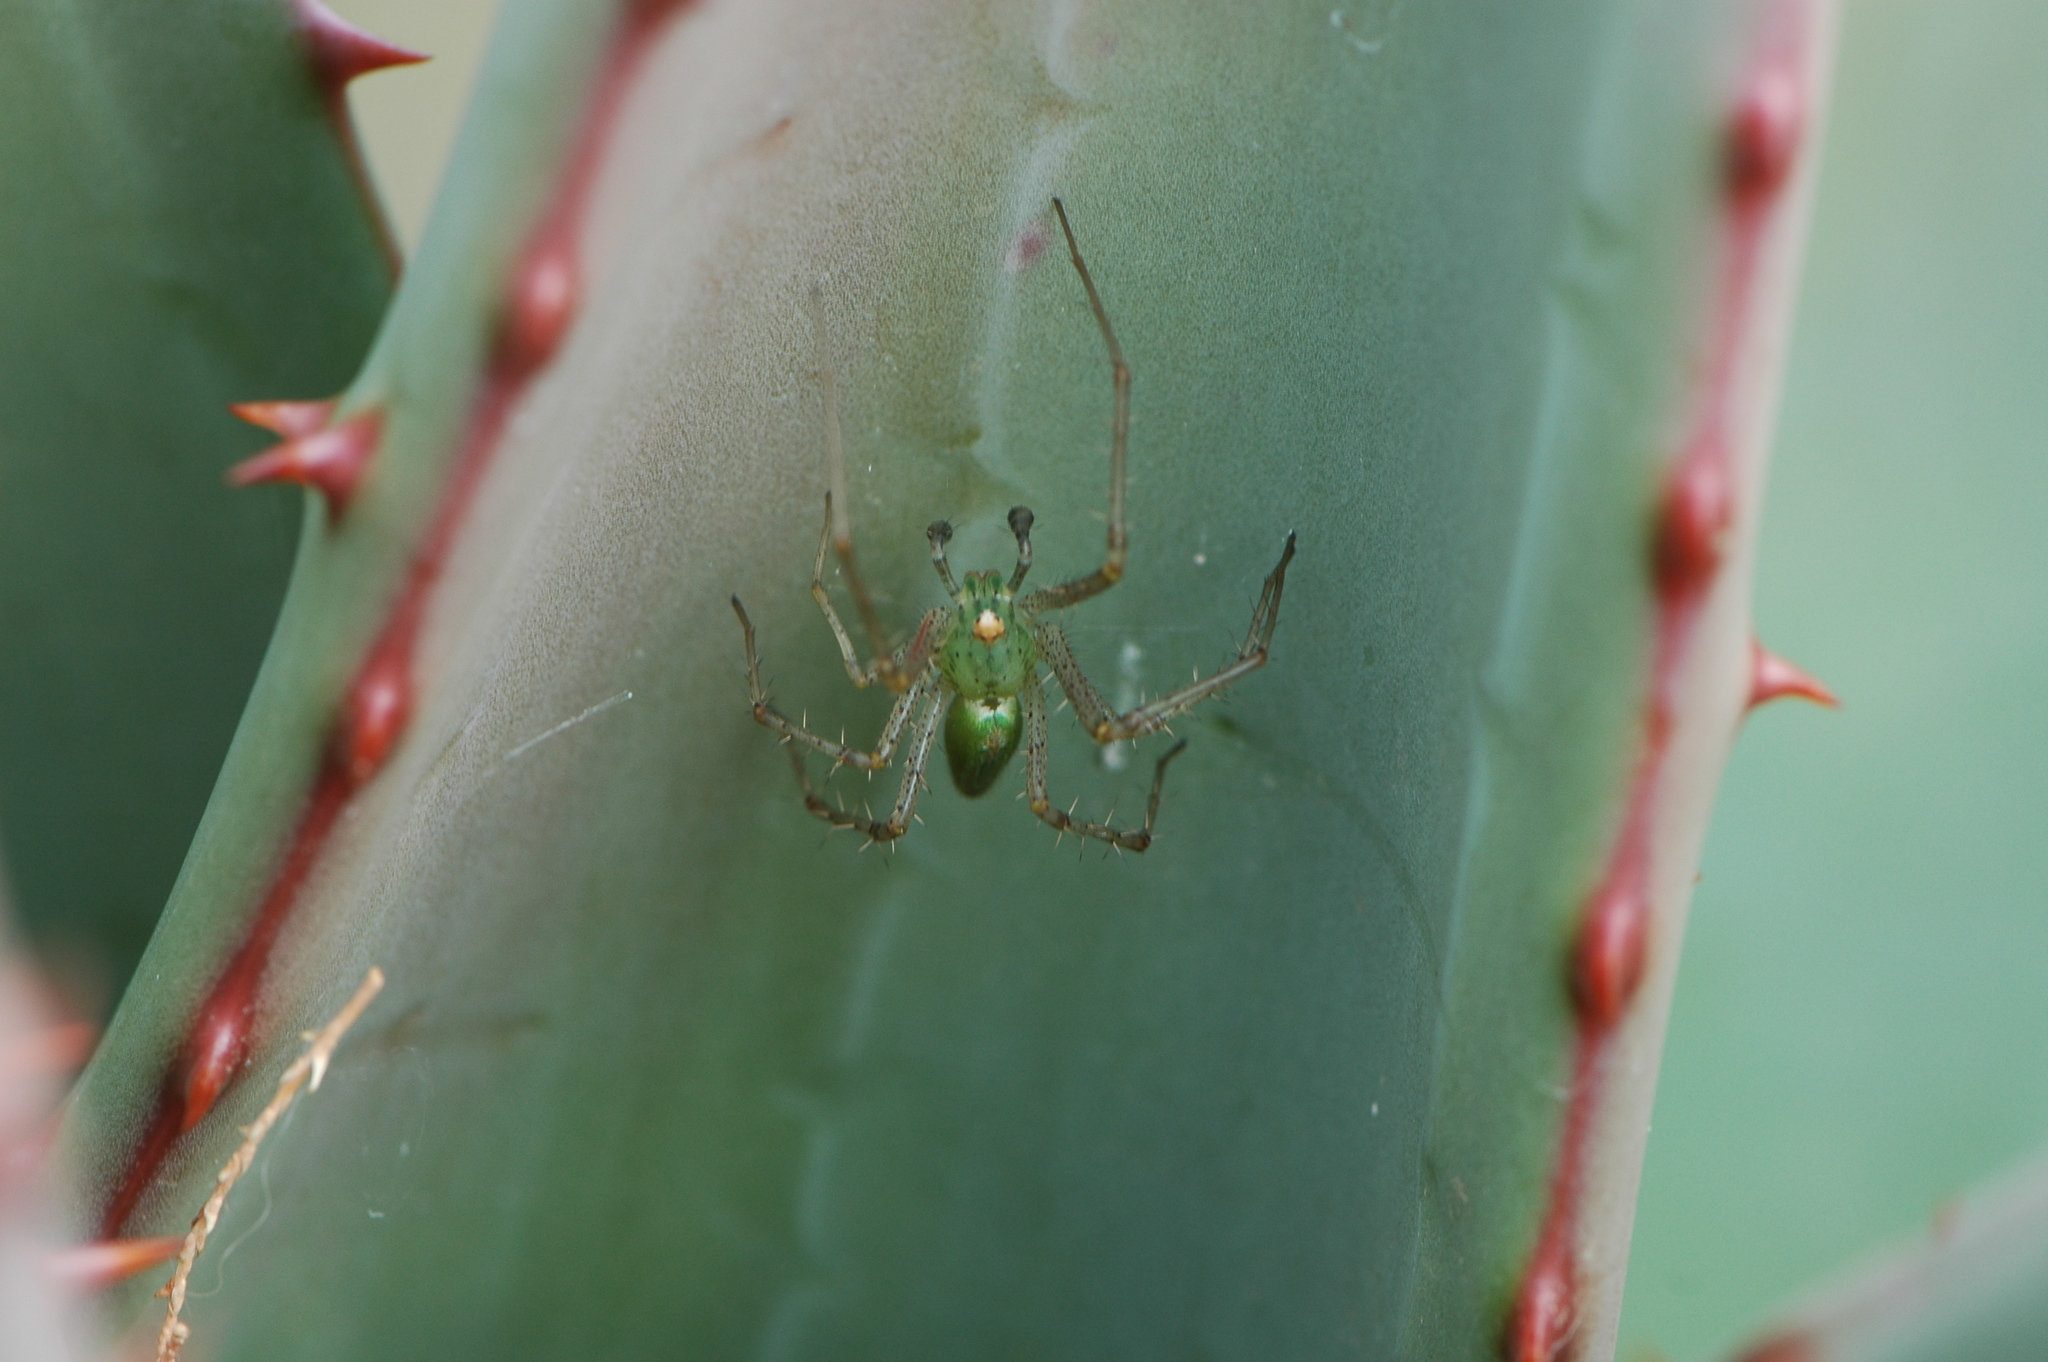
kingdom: Animalia
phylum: Arthropoda
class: Arachnida
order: Araneae
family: Oxyopidae
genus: Peucetia
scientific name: Peucetia viridis
